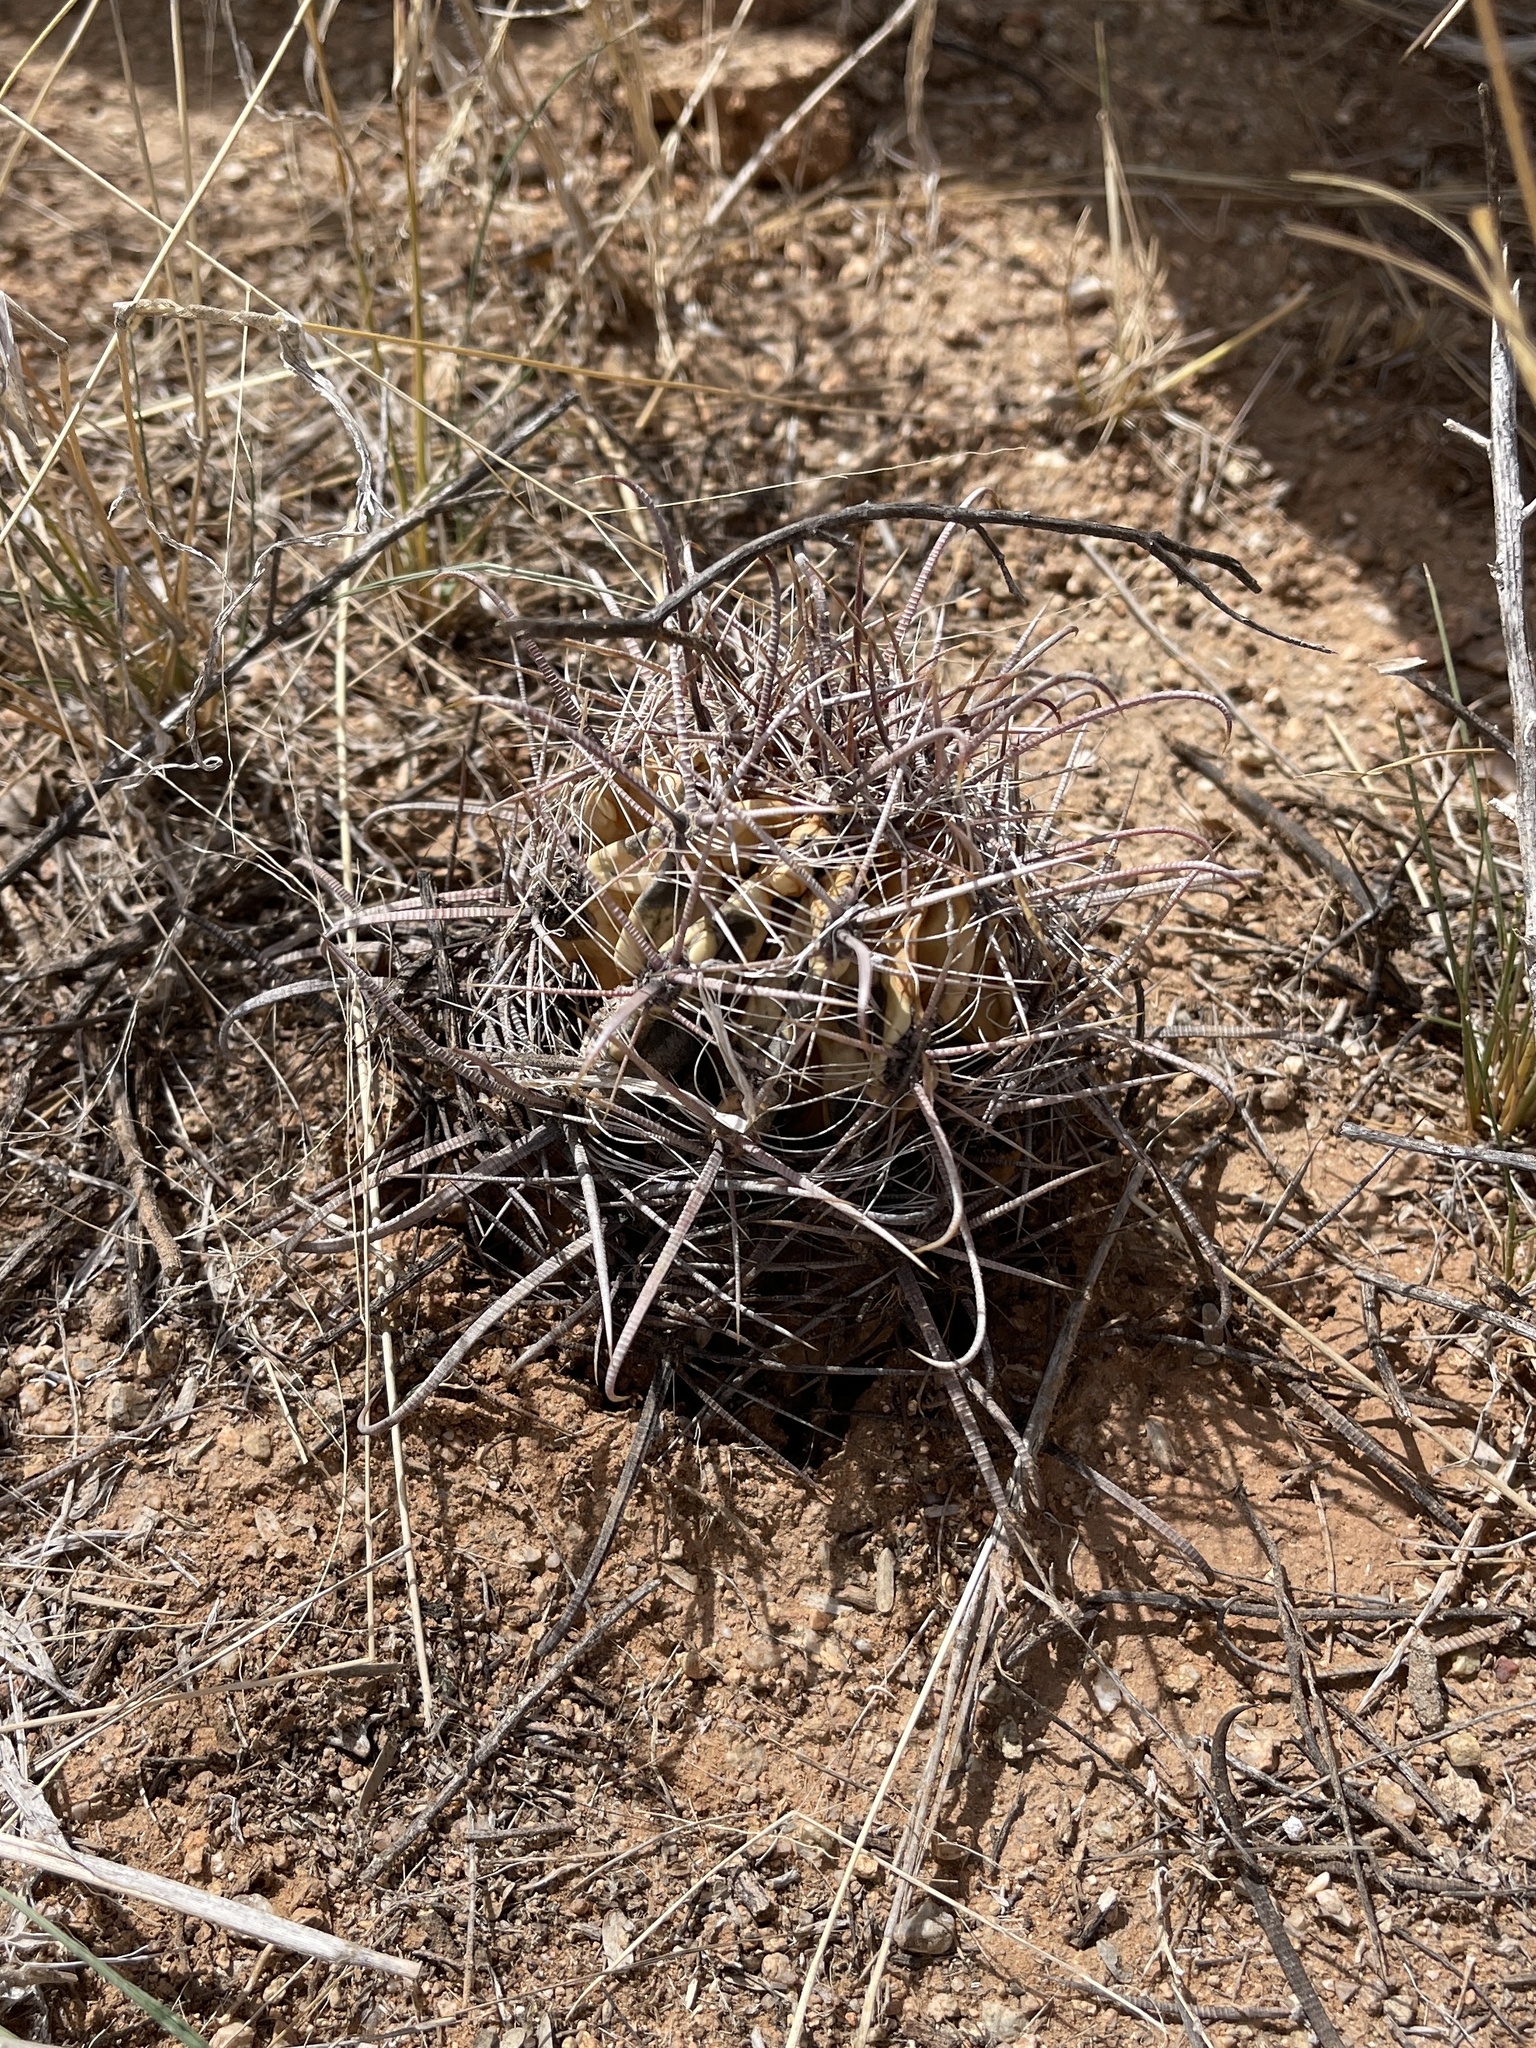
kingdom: Plantae
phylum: Tracheophyta
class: Magnoliopsida
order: Caryophyllales
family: Cactaceae
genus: Ferocactus
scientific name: Ferocactus wislizeni
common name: Candy barrel cactus
